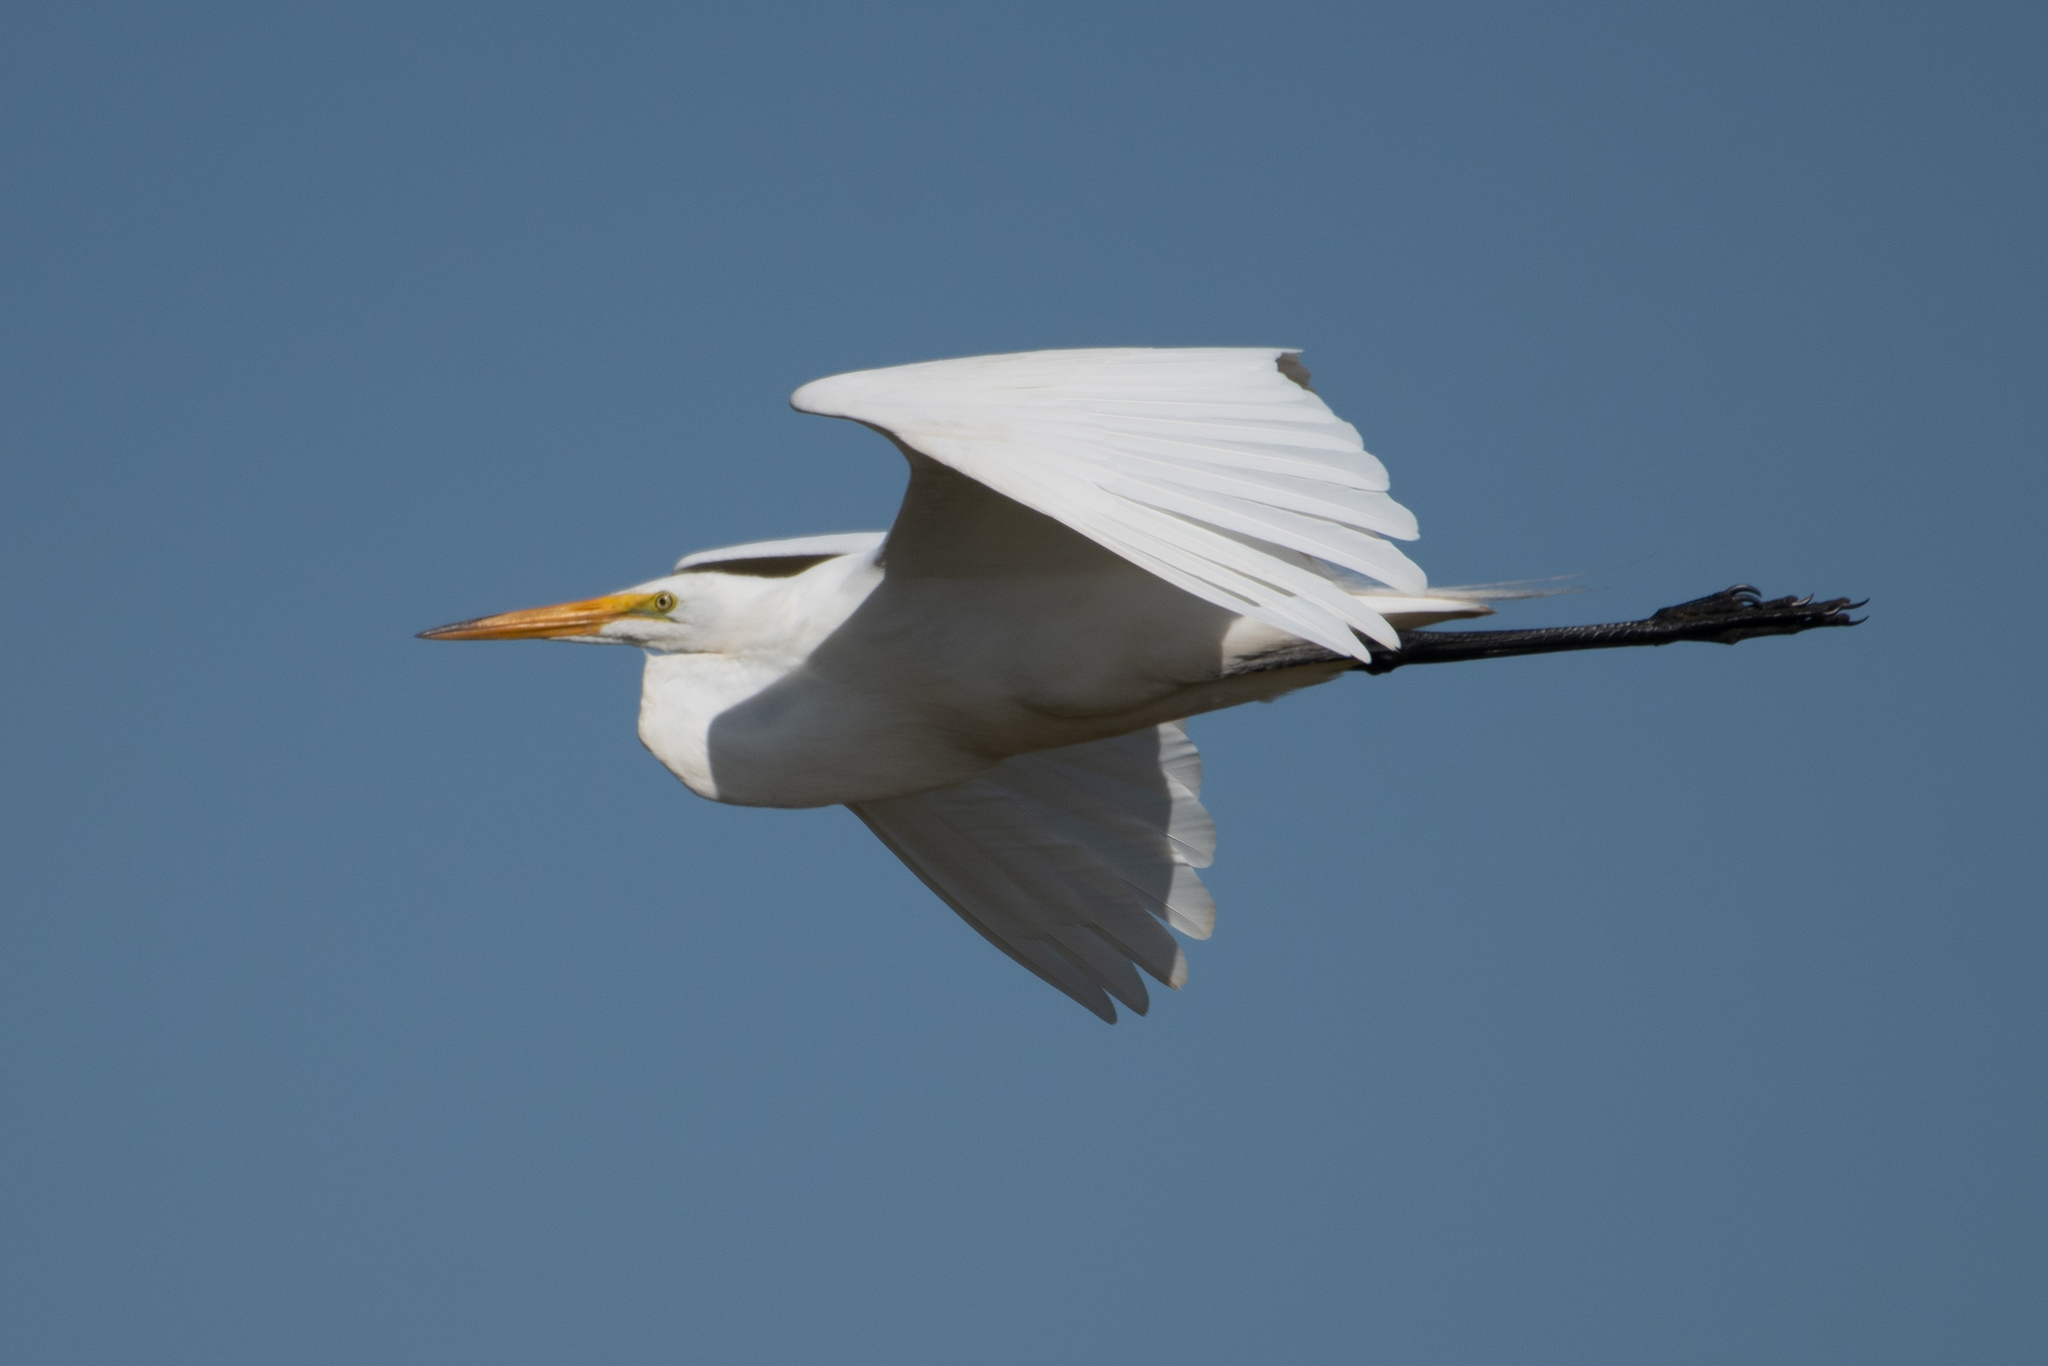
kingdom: Animalia
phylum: Chordata
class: Aves
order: Pelecaniformes
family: Ardeidae
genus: Ardea
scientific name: Ardea alba
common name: Great egret
